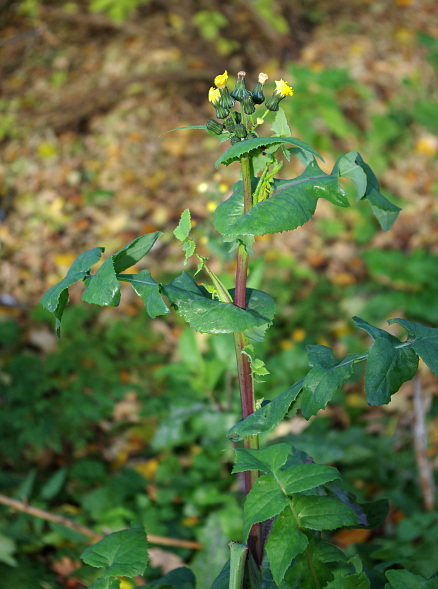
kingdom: Plantae
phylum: Tracheophyta
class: Magnoliopsida
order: Asterales
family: Asteraceae
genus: Sonchus
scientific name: Sonchus oleraceus
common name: Common sowthistle
